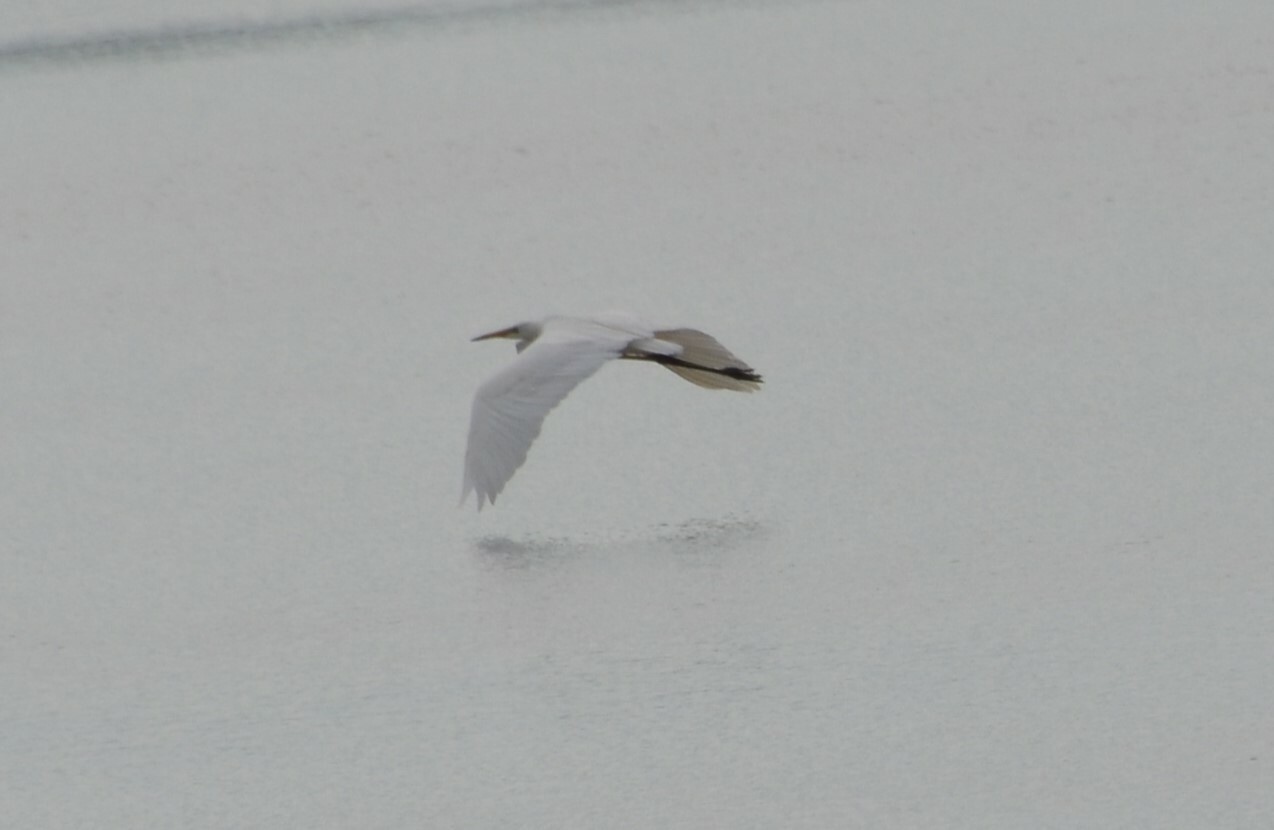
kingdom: Animalia
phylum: Chordata
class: Aves
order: Pelecaniformes
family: Ardeidae
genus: Ardea
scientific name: Ardea alba
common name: Great egret
